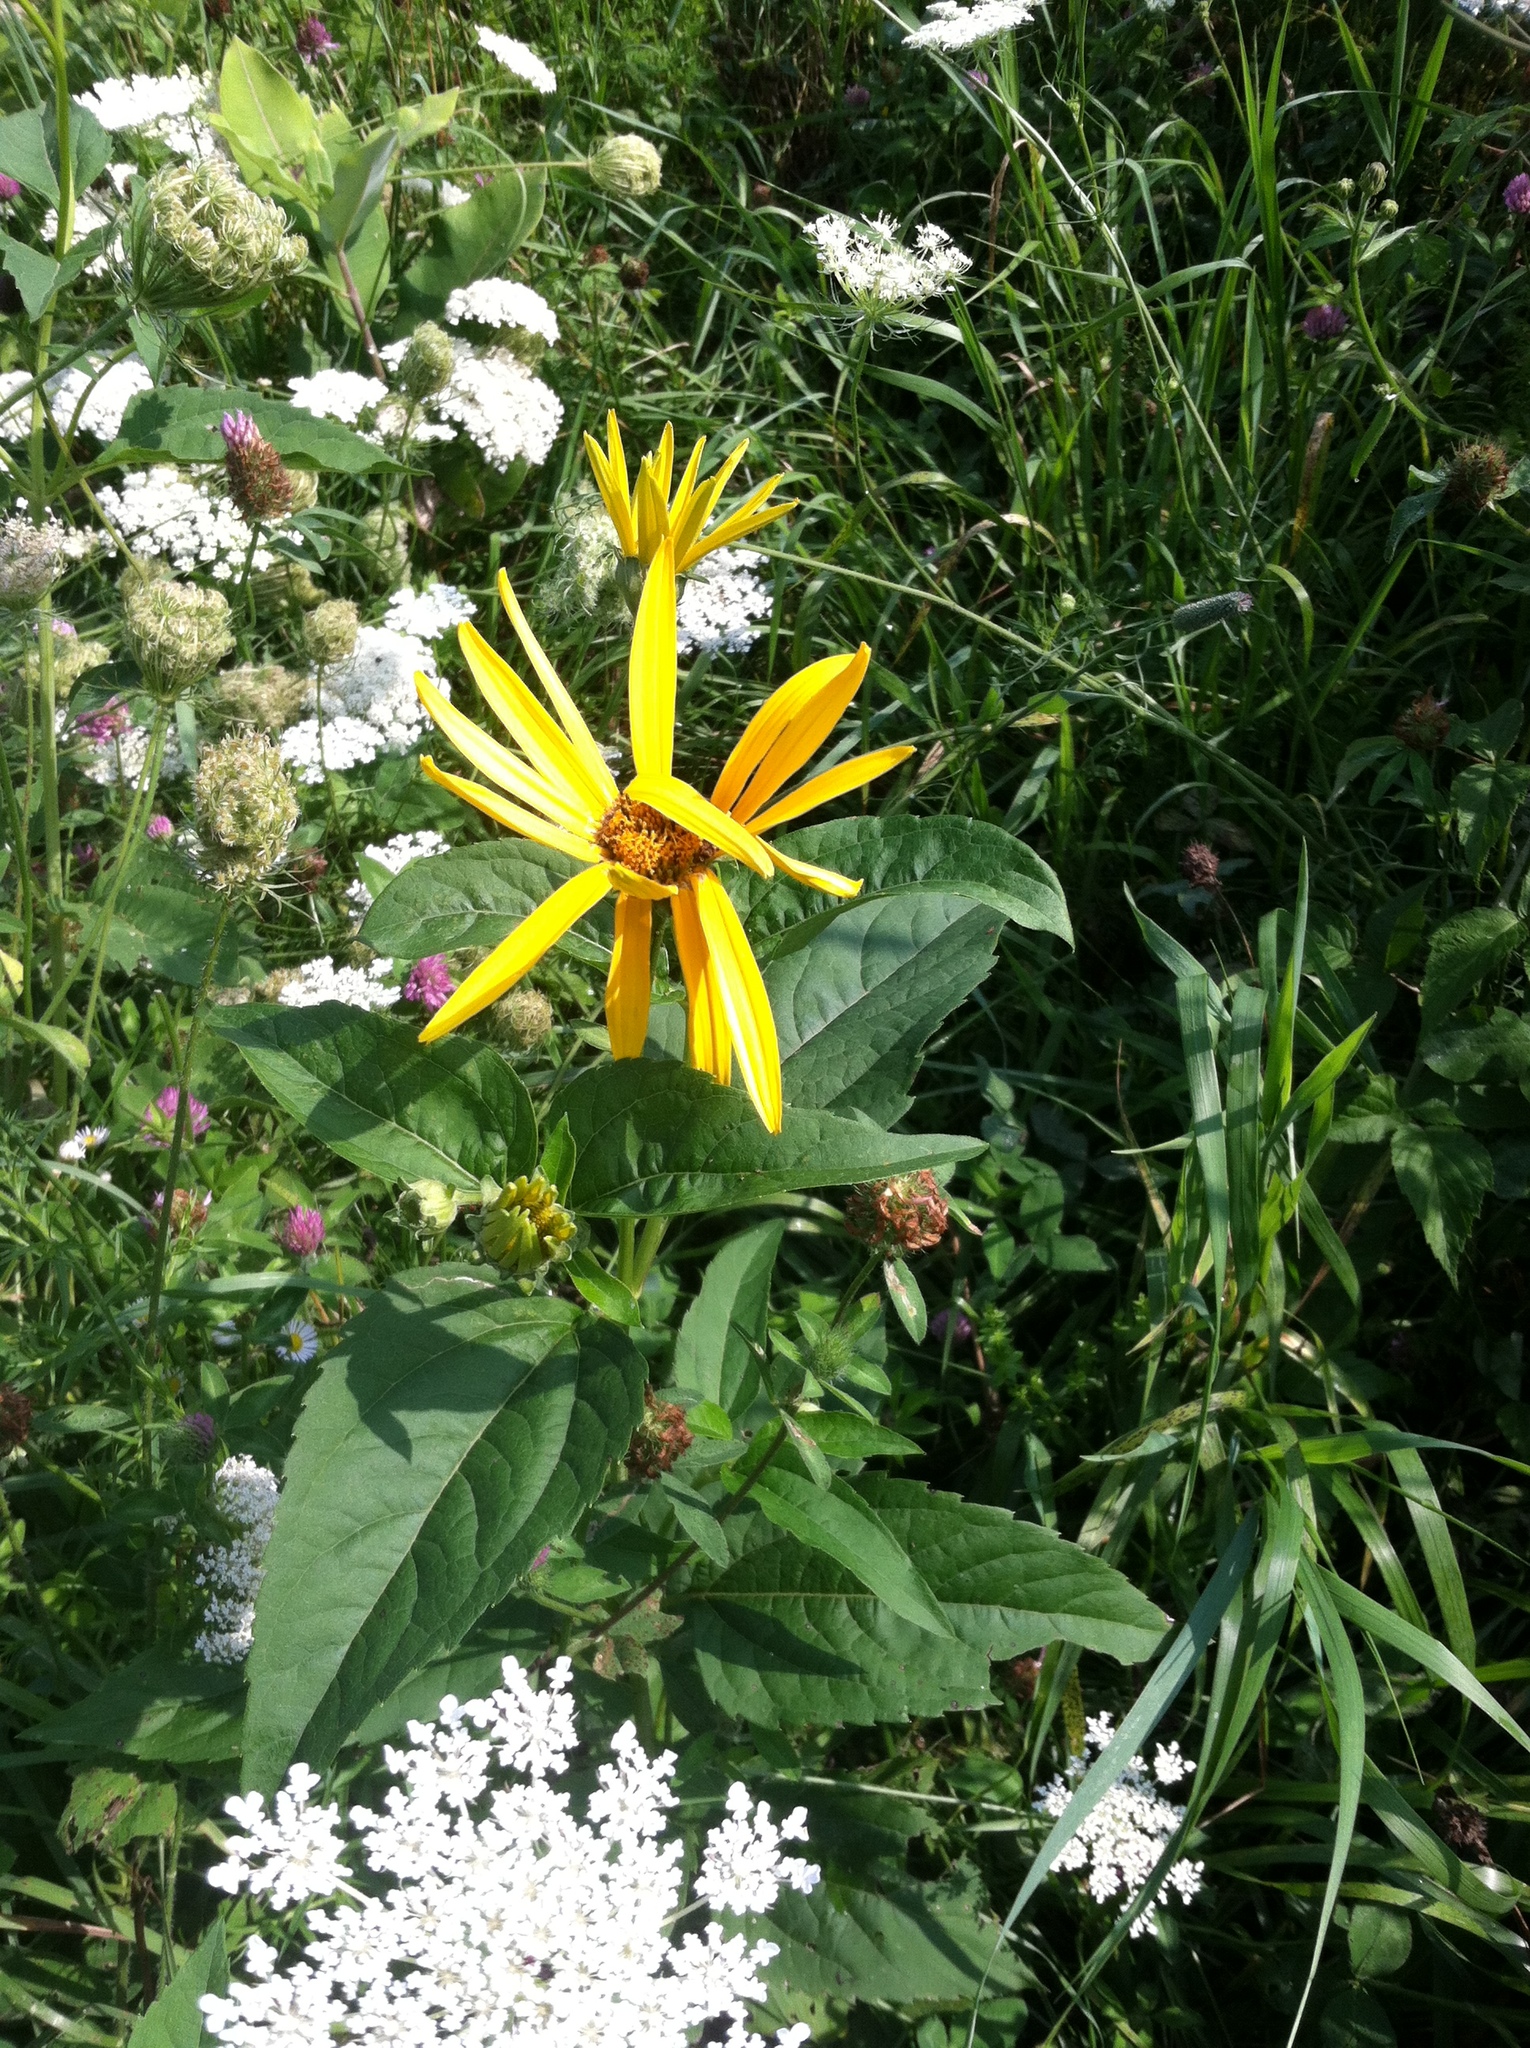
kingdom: Plantae
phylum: Tracheophyta
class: Magnoliopsida
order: Asterales
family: Asteraceae
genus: Heliopsis
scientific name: Heliopsis helianthoides
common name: False sunflower
